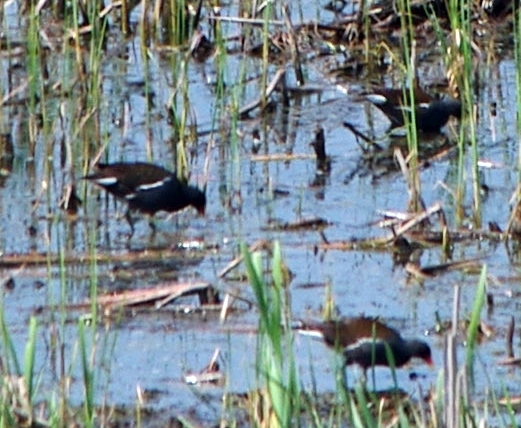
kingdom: Animalia
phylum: Chordata
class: Aves
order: Gruiformes
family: Rallidae
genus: Gallinula
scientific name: Gallinula chloropus
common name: Common moorhen
